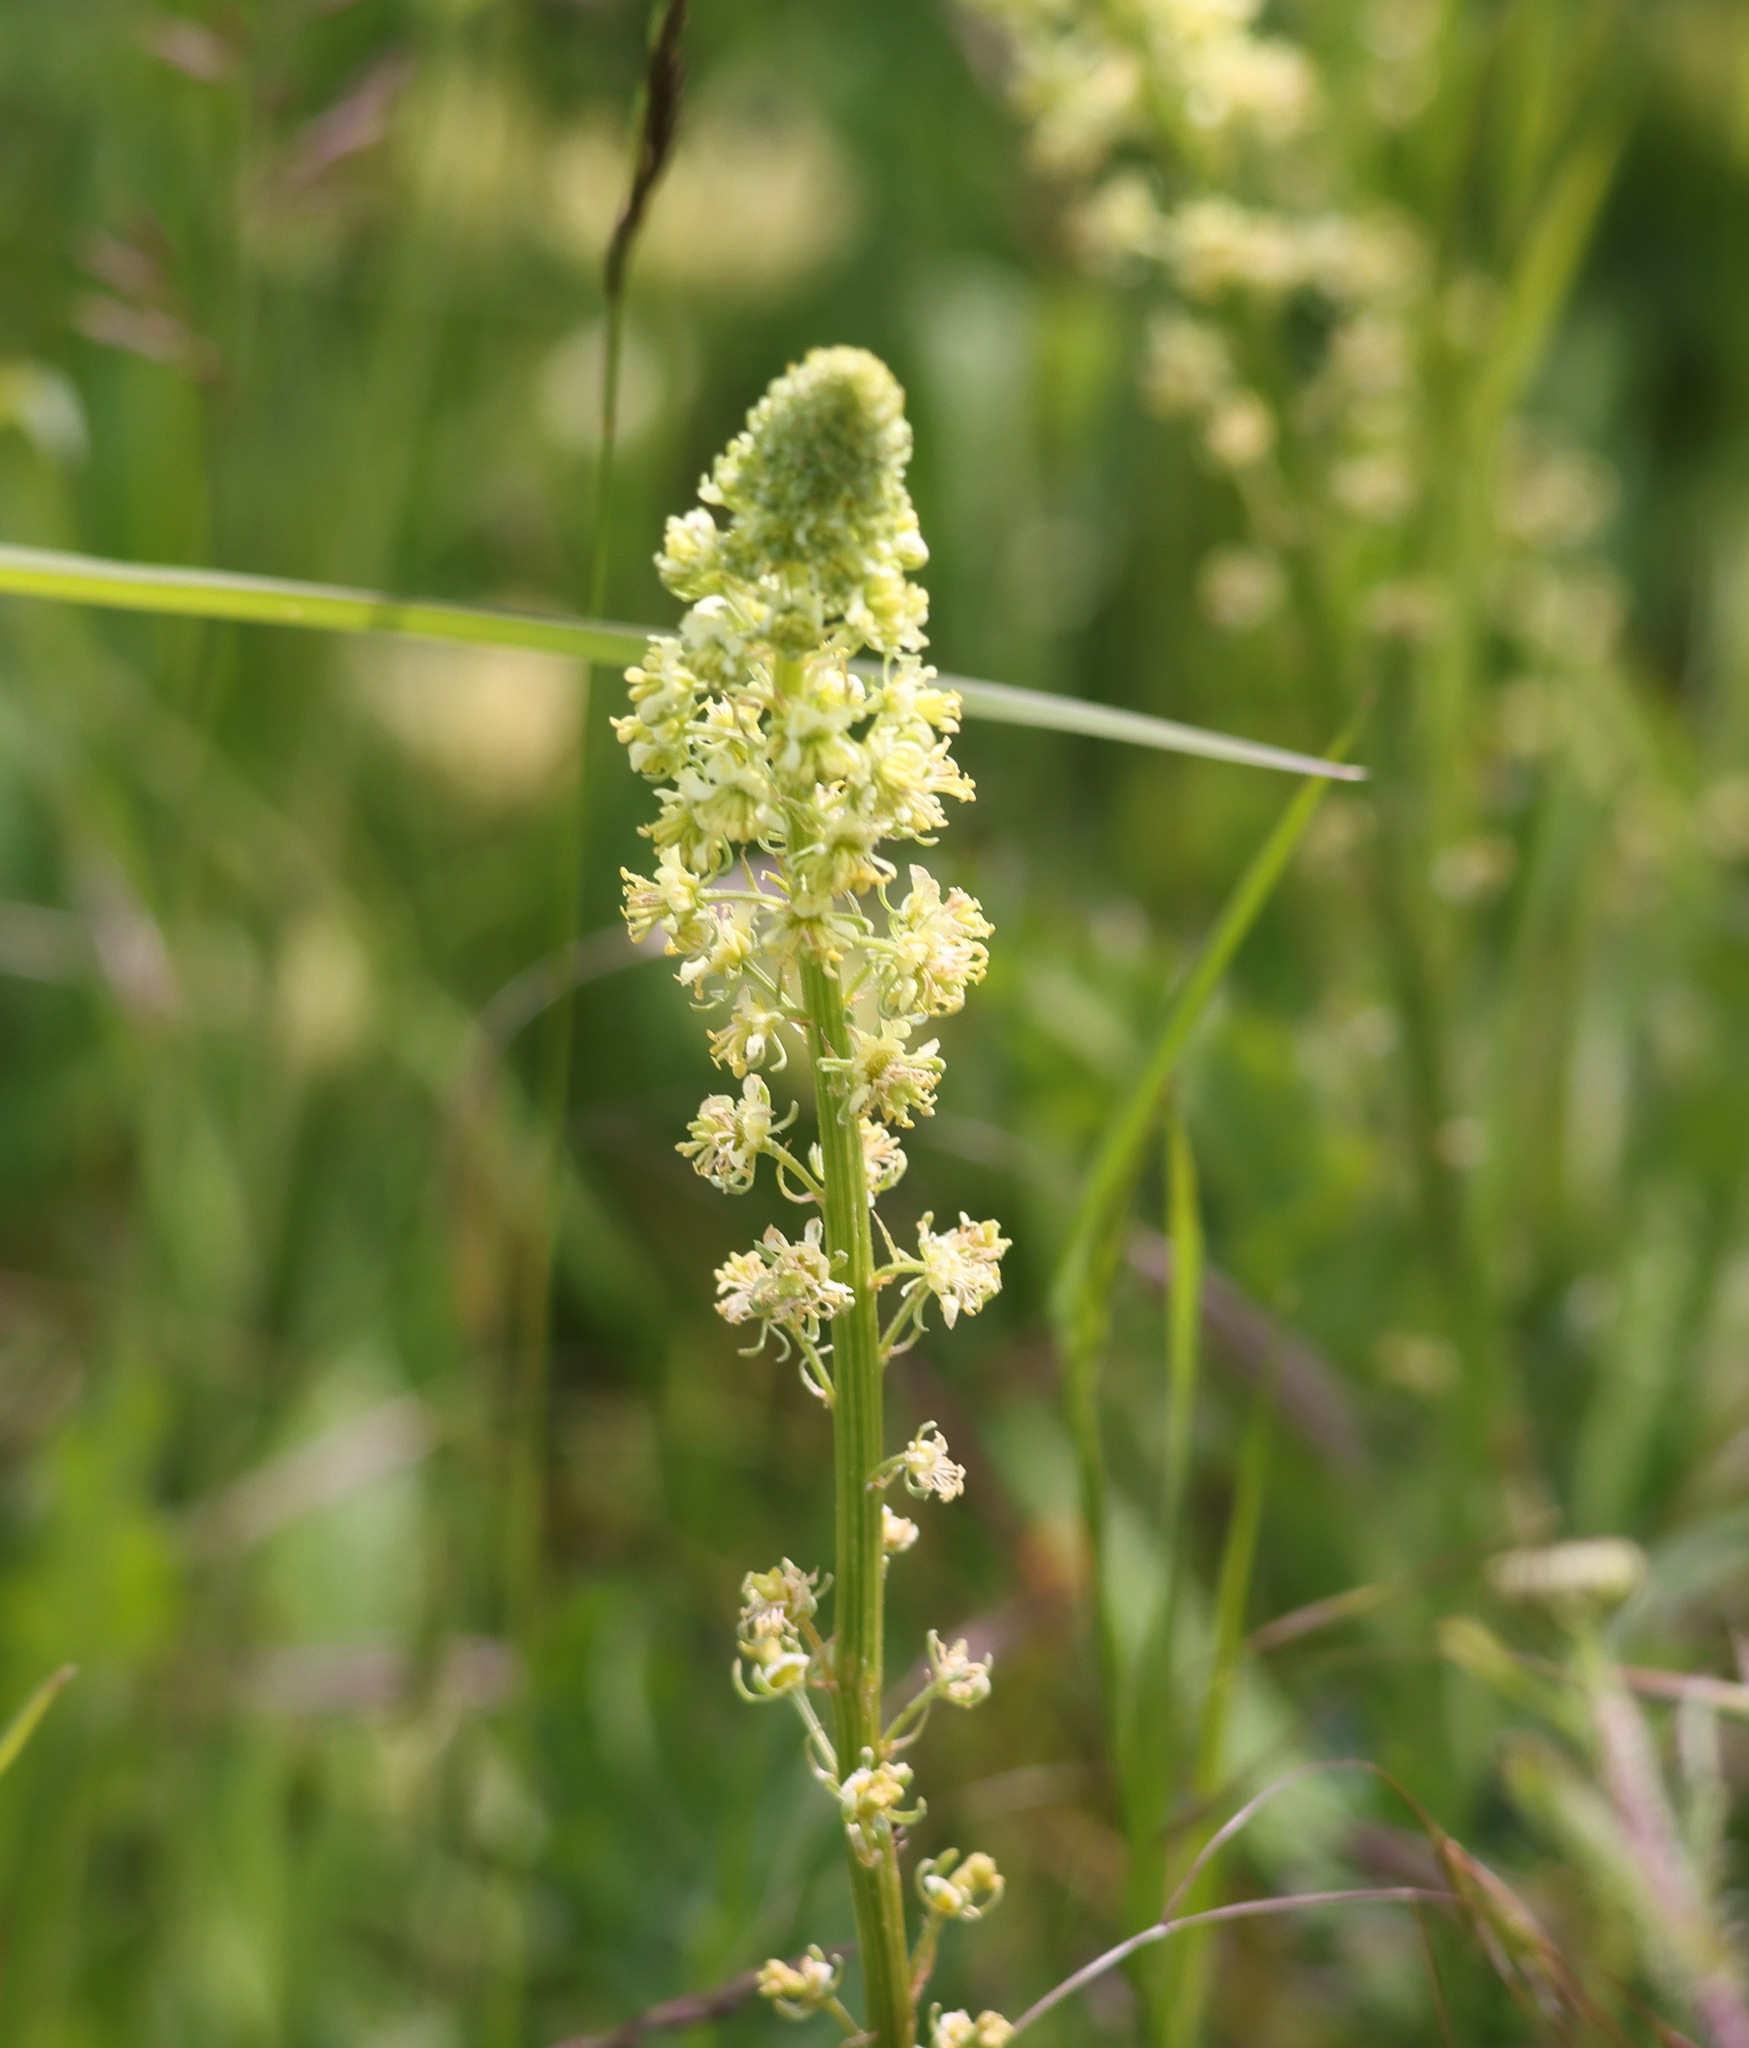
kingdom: Plantae
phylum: Tracheophyta
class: Magnoliopsida
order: Brassicales
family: Resedaceae
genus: Reseda
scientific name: Reseda lutea
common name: Wild mignonette
